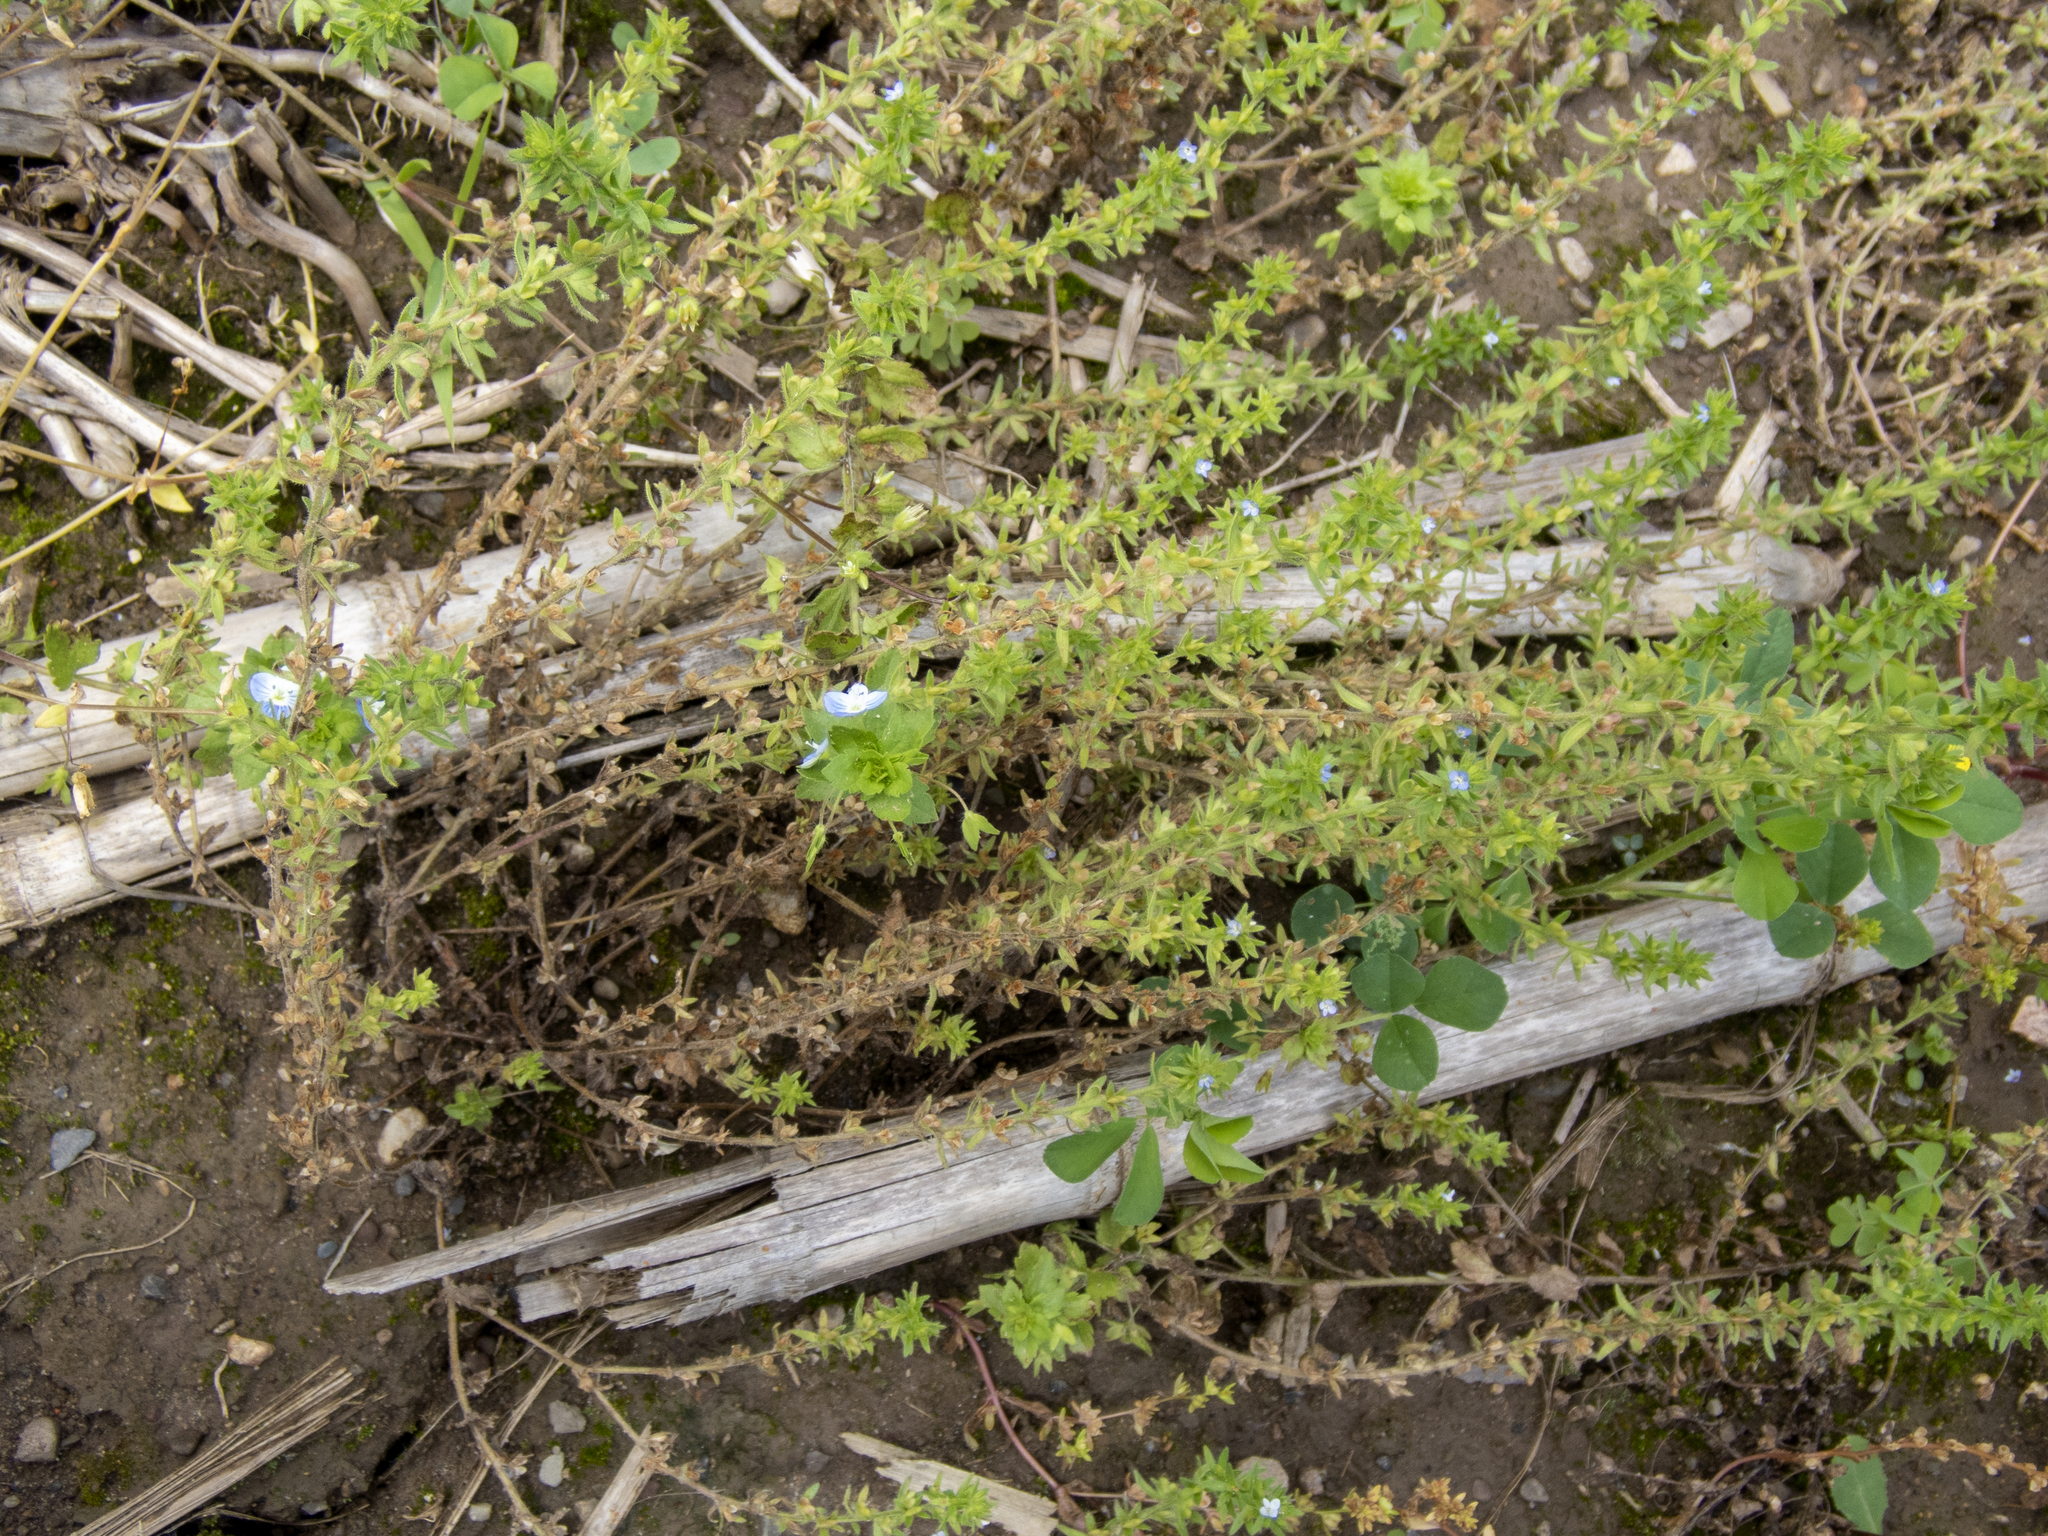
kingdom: Plantae
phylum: Tracheophyta
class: Magnoliopsida
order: Lamiales
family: Plantaginaceae
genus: Veronica
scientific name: Veronica arvensis
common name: Corn speedwell
